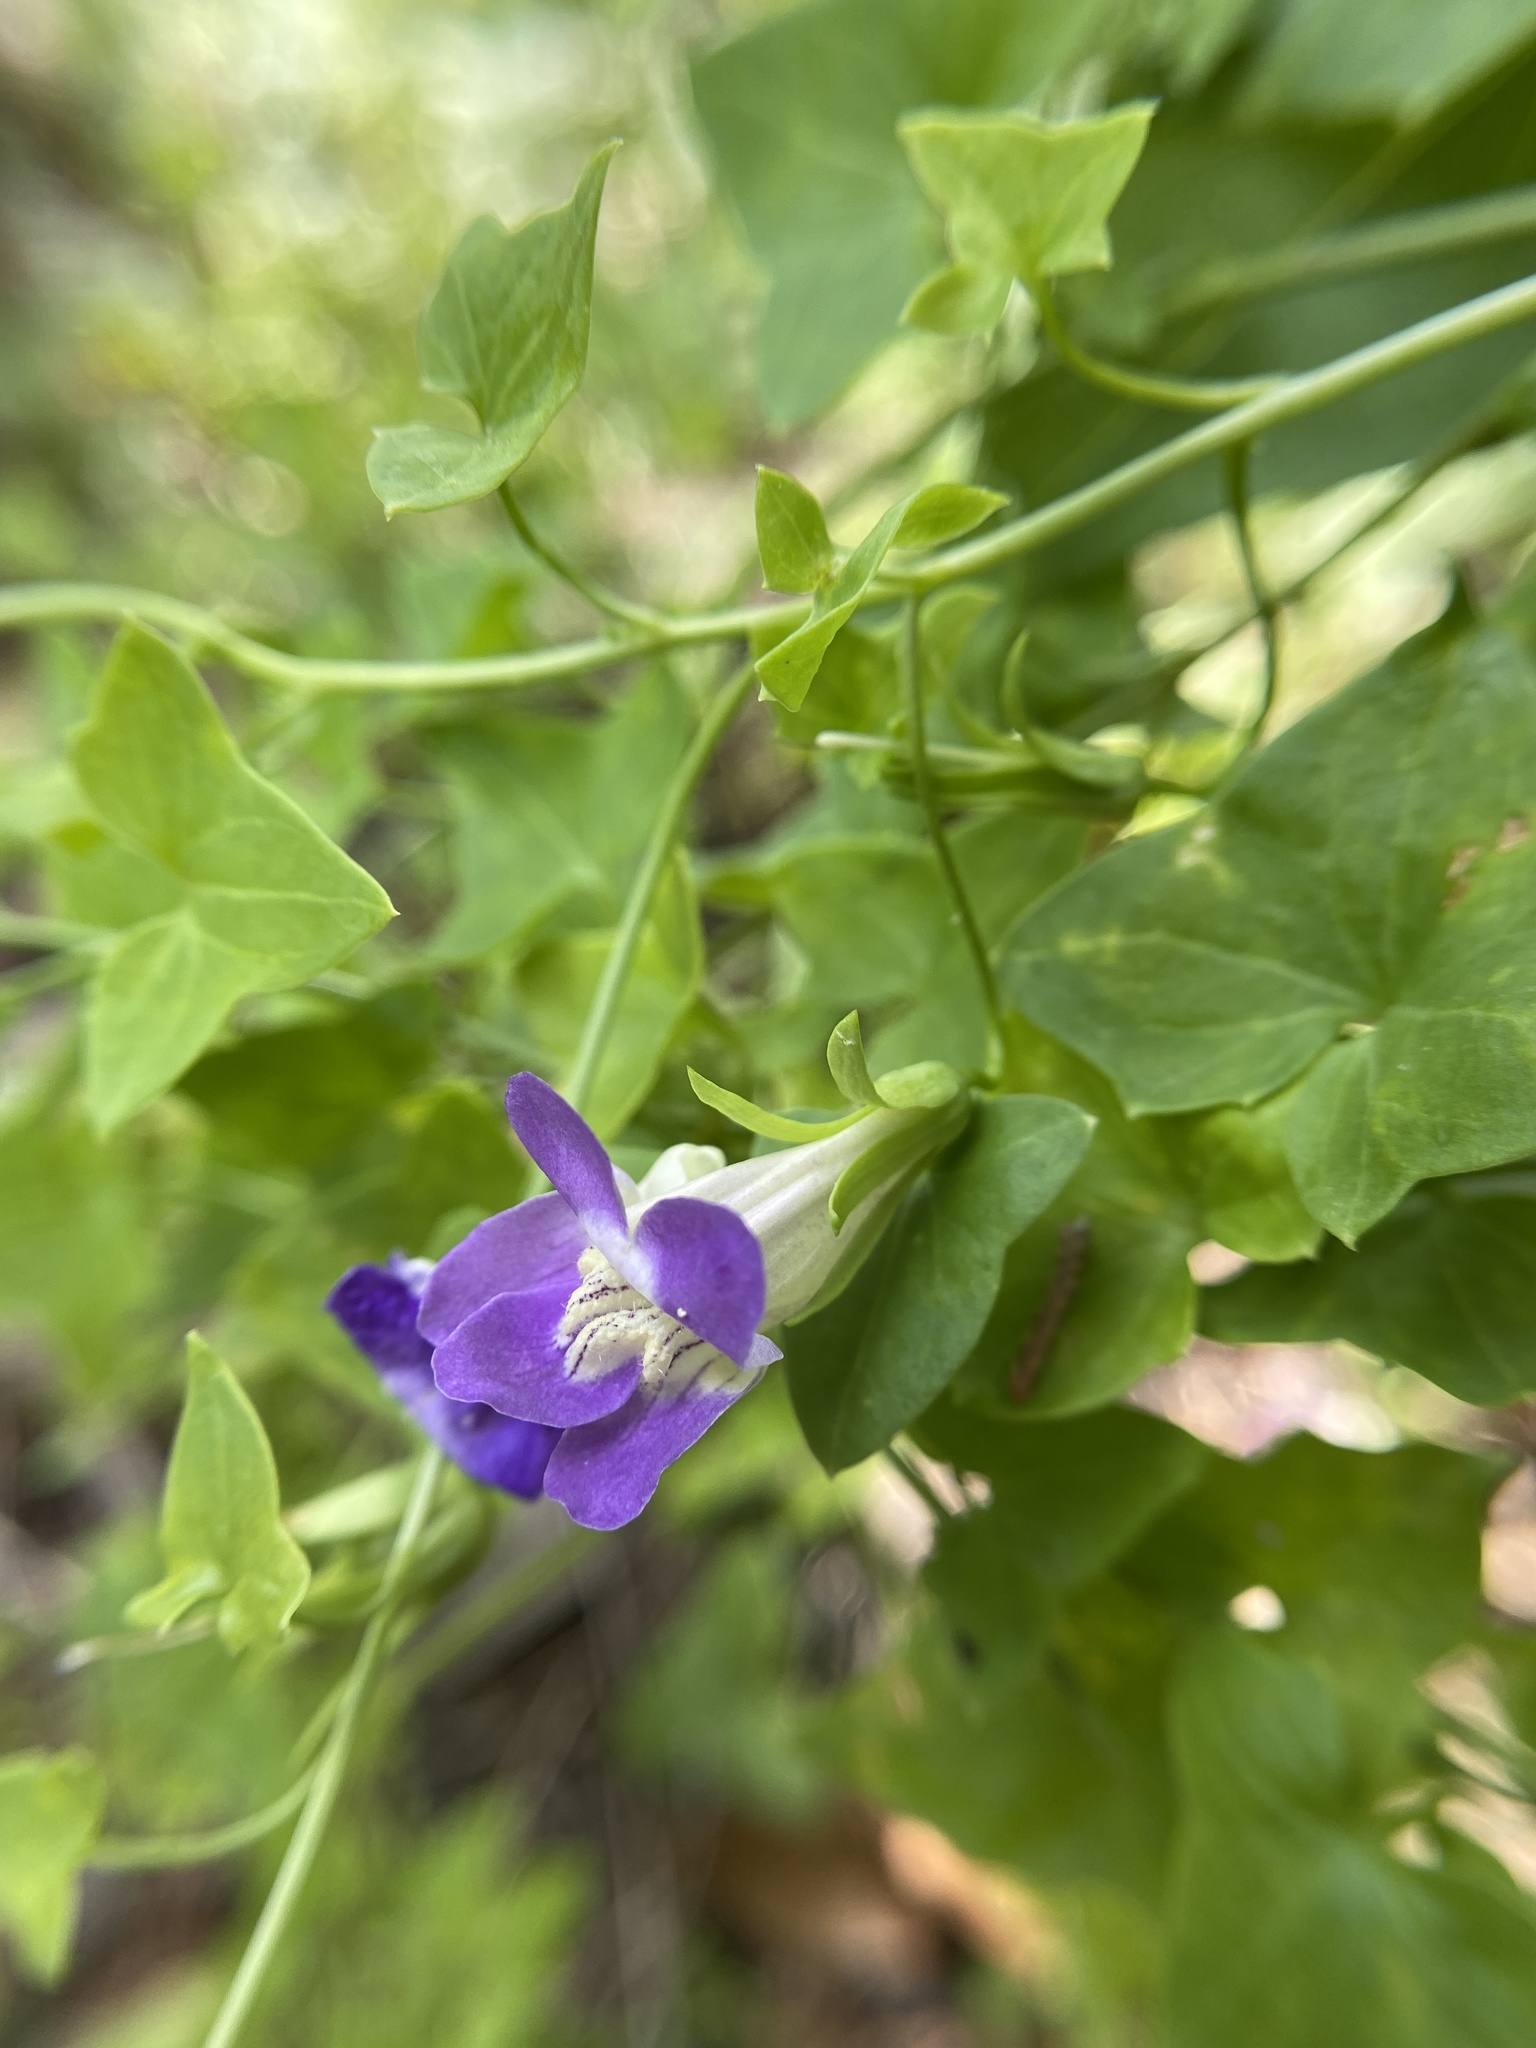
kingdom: Plantae
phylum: Tracheophyta
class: Magnoliopsida
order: Lamiales
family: Plantaginaceae
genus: Maurandella
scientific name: Maurandella antirrhiniflora
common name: Violet twining-snapdragon
